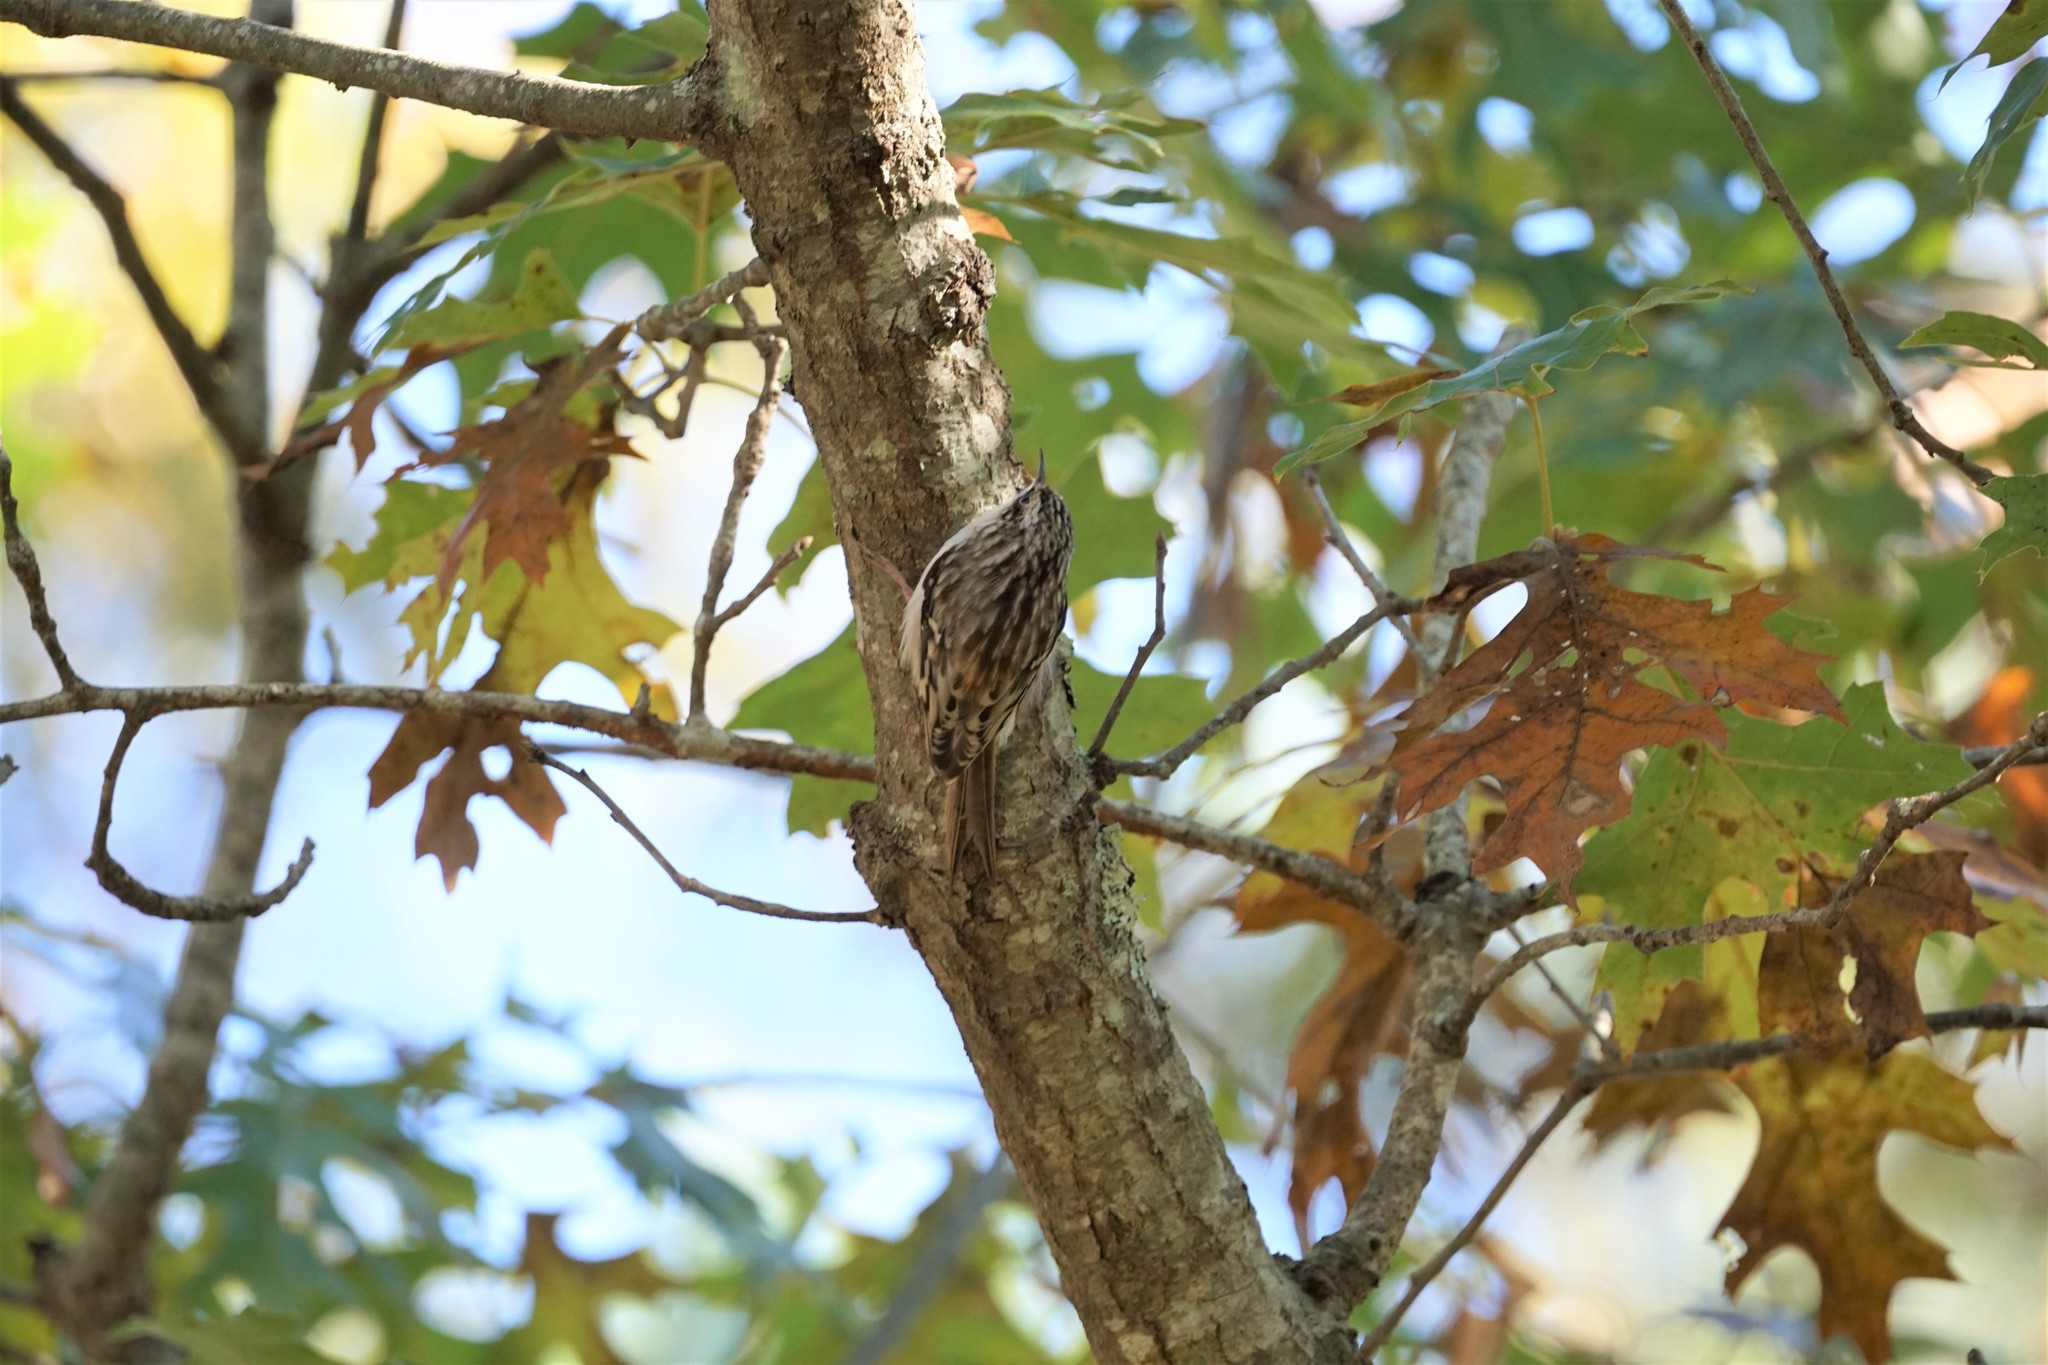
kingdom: Animalia
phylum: Chordata
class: Aves
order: Passeriformes
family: Certhiidae
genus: Certhia
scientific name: Certhia americana
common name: Brown creeper
